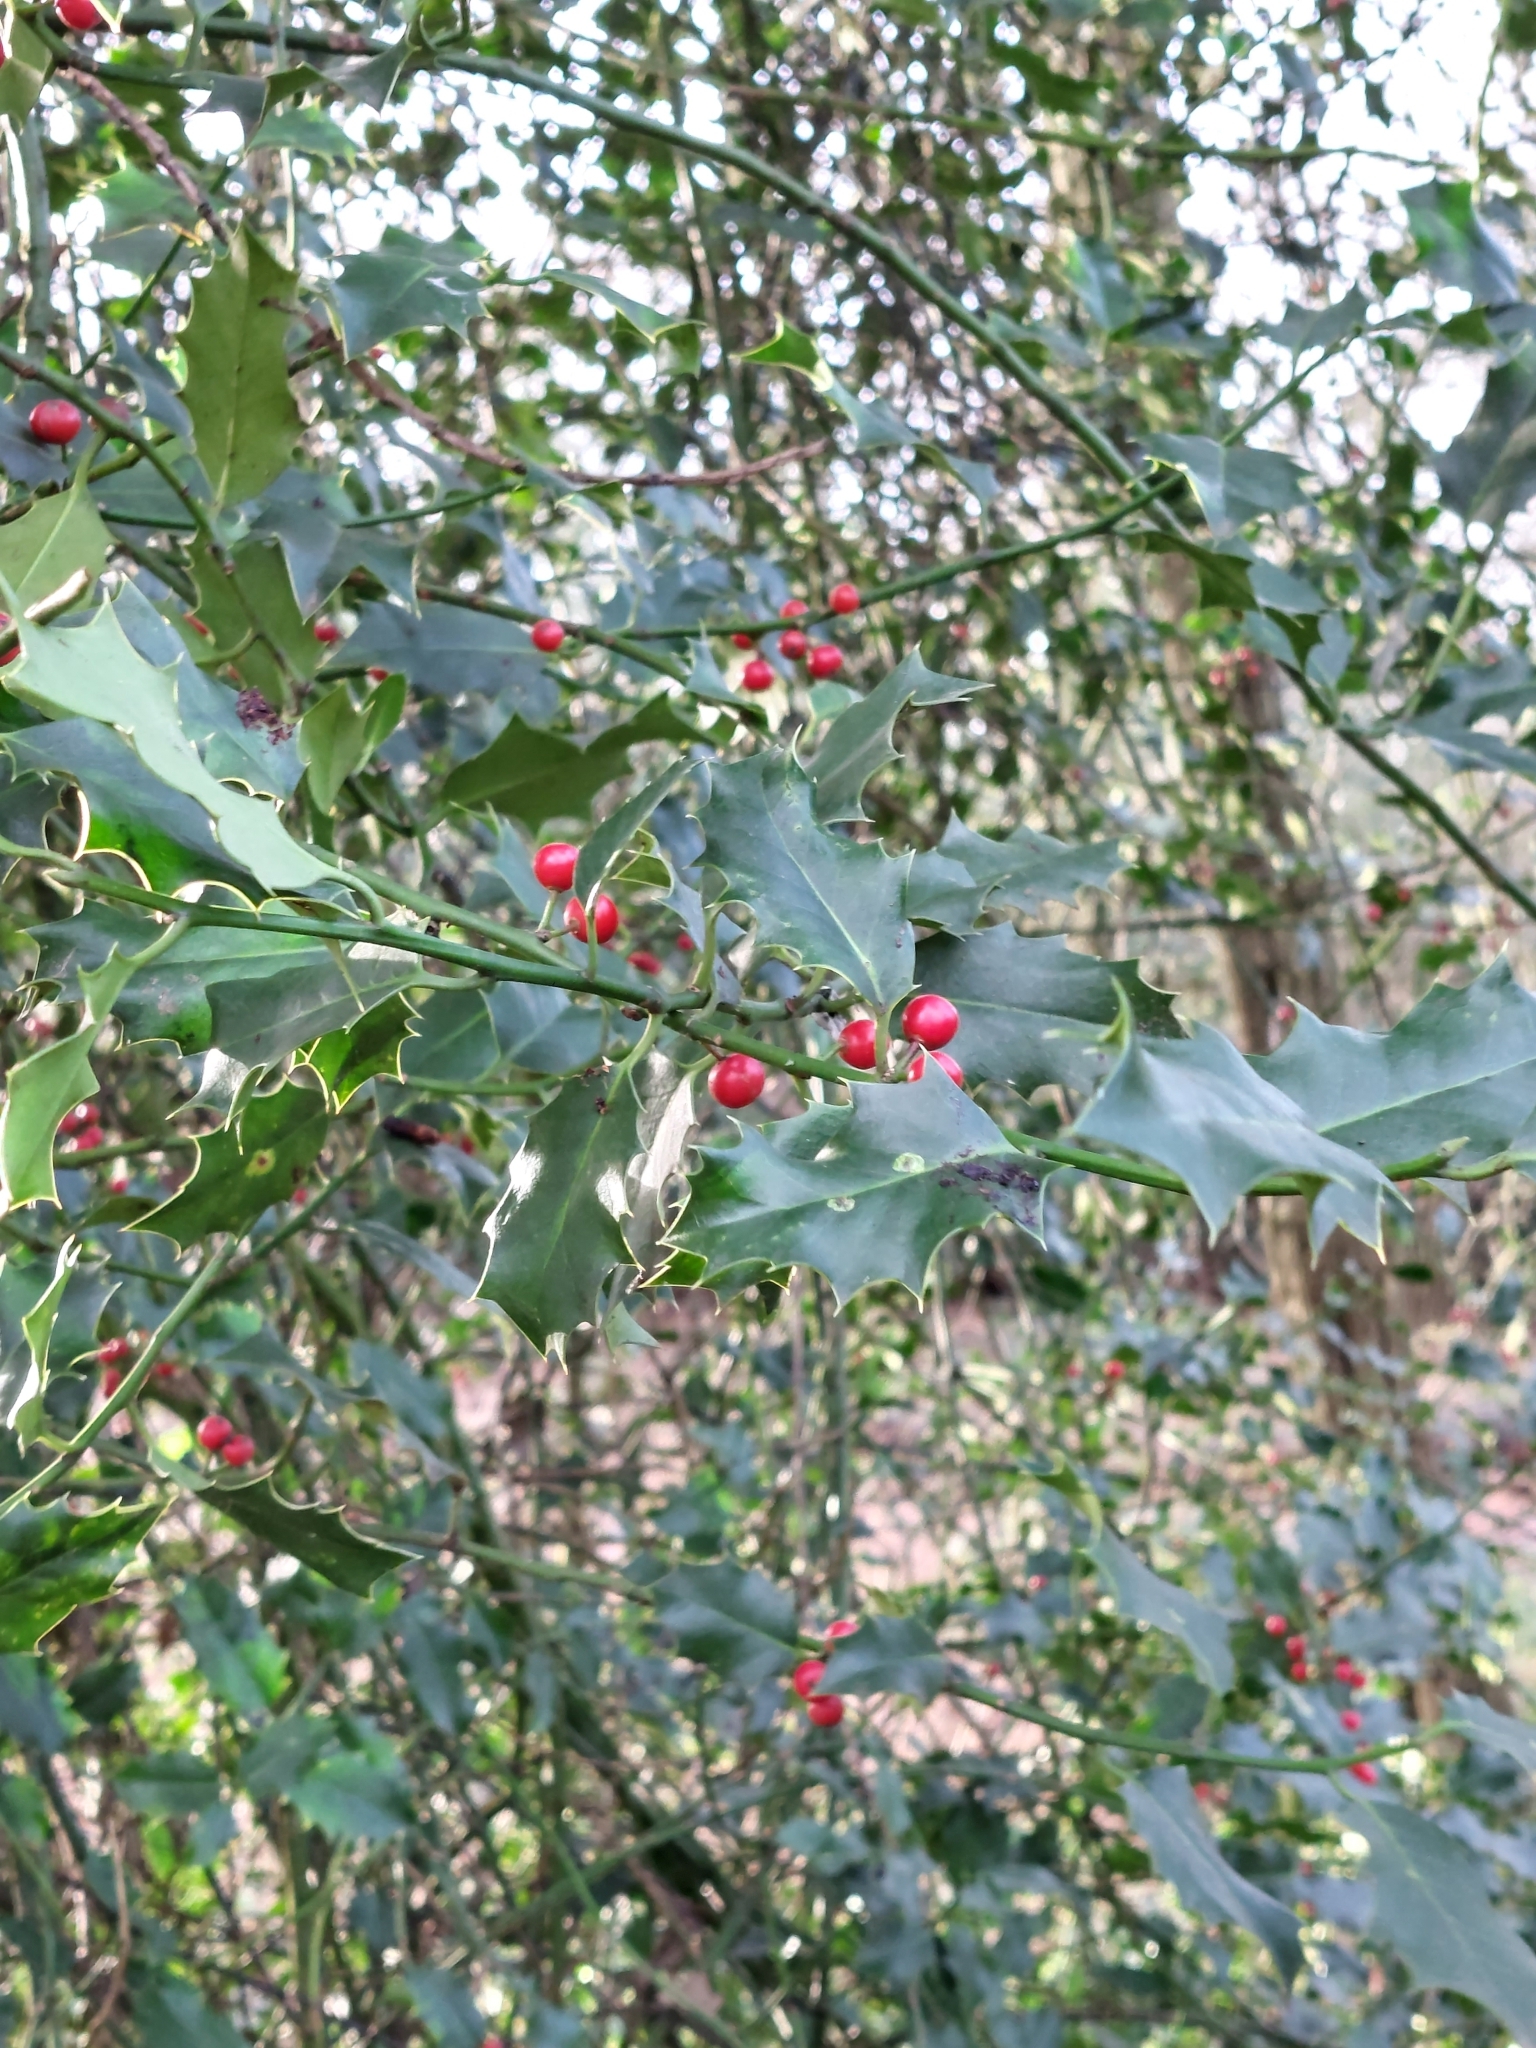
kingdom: Plantae
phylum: Tracheophyta
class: Magnoliopsida
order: Aquifoliales
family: Aquifoliaceae
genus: Ilex
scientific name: Ilex aquifolium
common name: English holly
